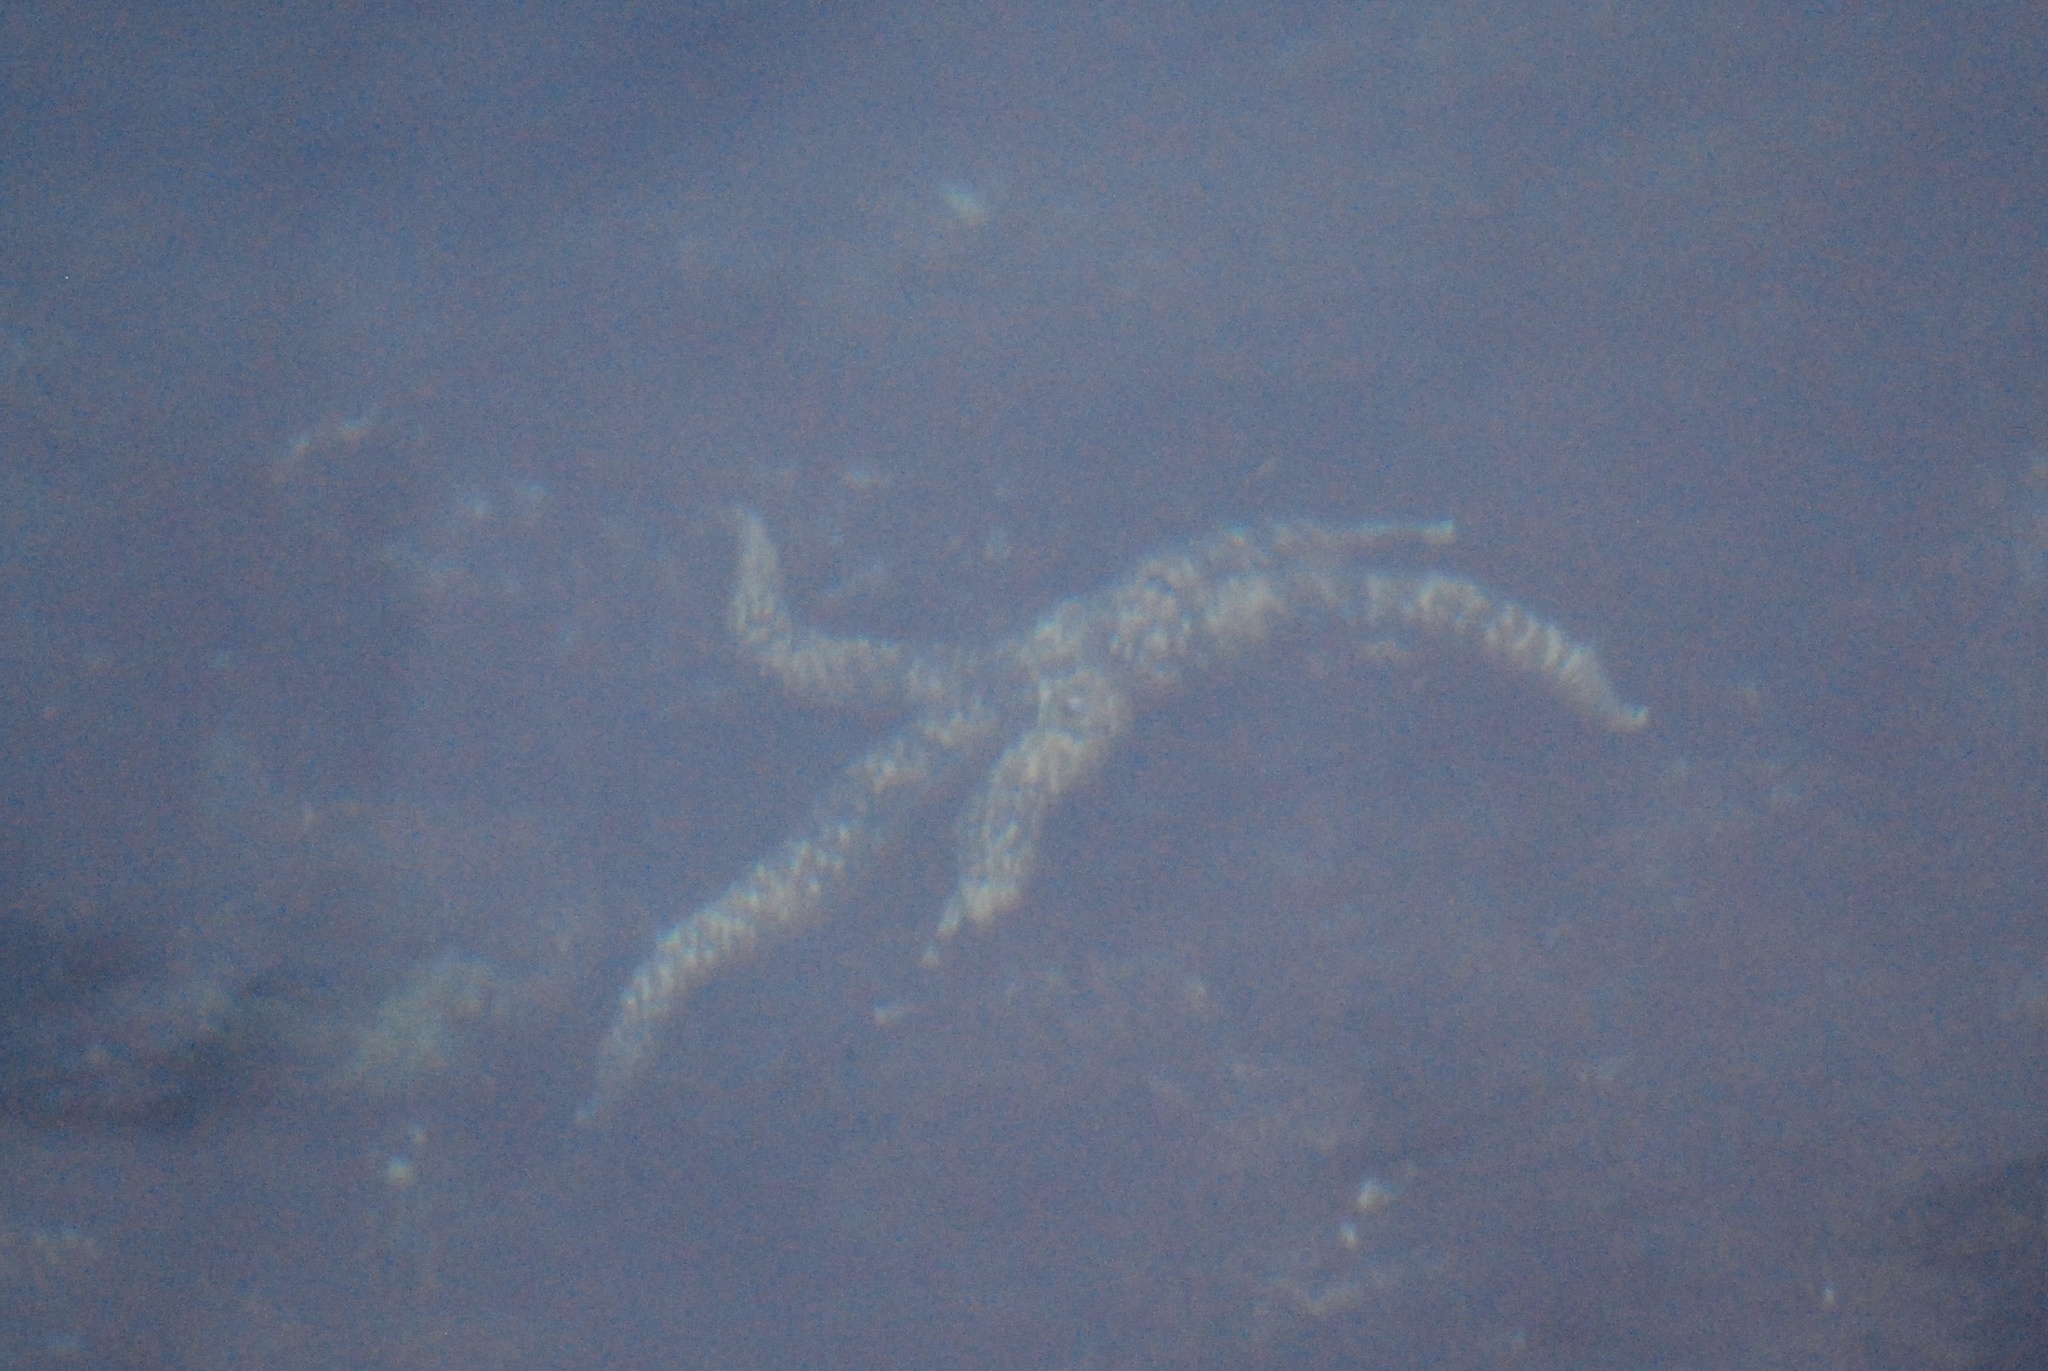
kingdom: Animalia
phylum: Echinodermata
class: Asteroidea
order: Forcipulatida
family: Asteriidae
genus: Evasterias
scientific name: Evasterias troschelii
